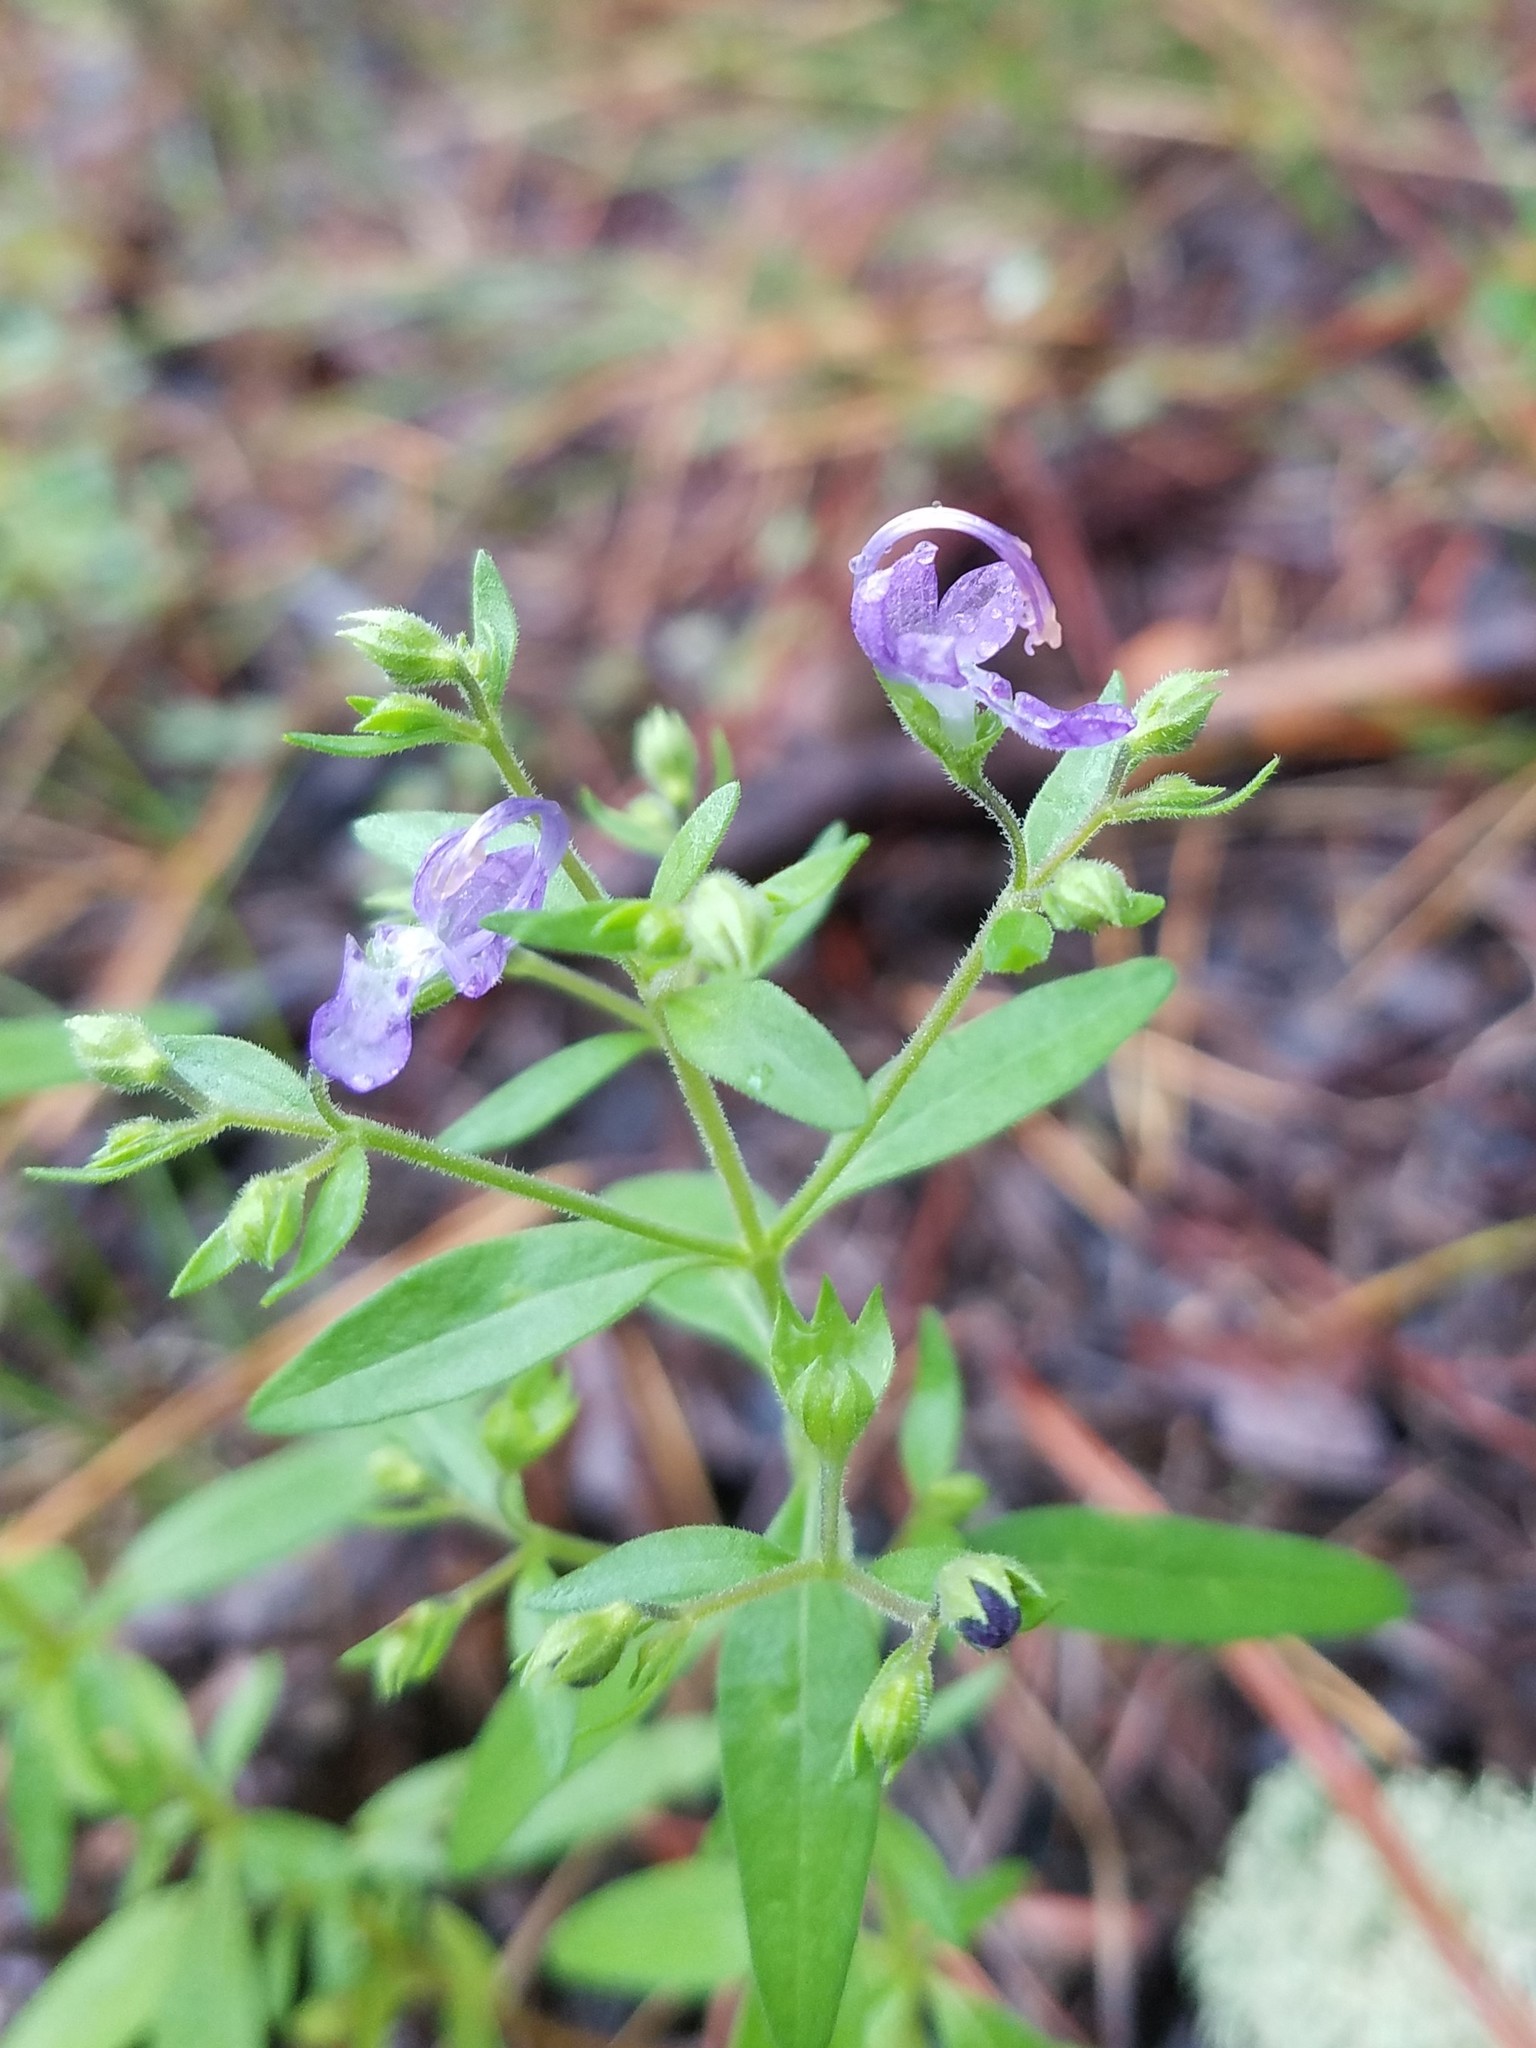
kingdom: Plantae
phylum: Tracheophyta
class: Magnoliopsida
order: Lamiales
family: Lamiaceae
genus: Trichostema
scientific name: Trichostema dichotomum
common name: Bastard pennyroyal
